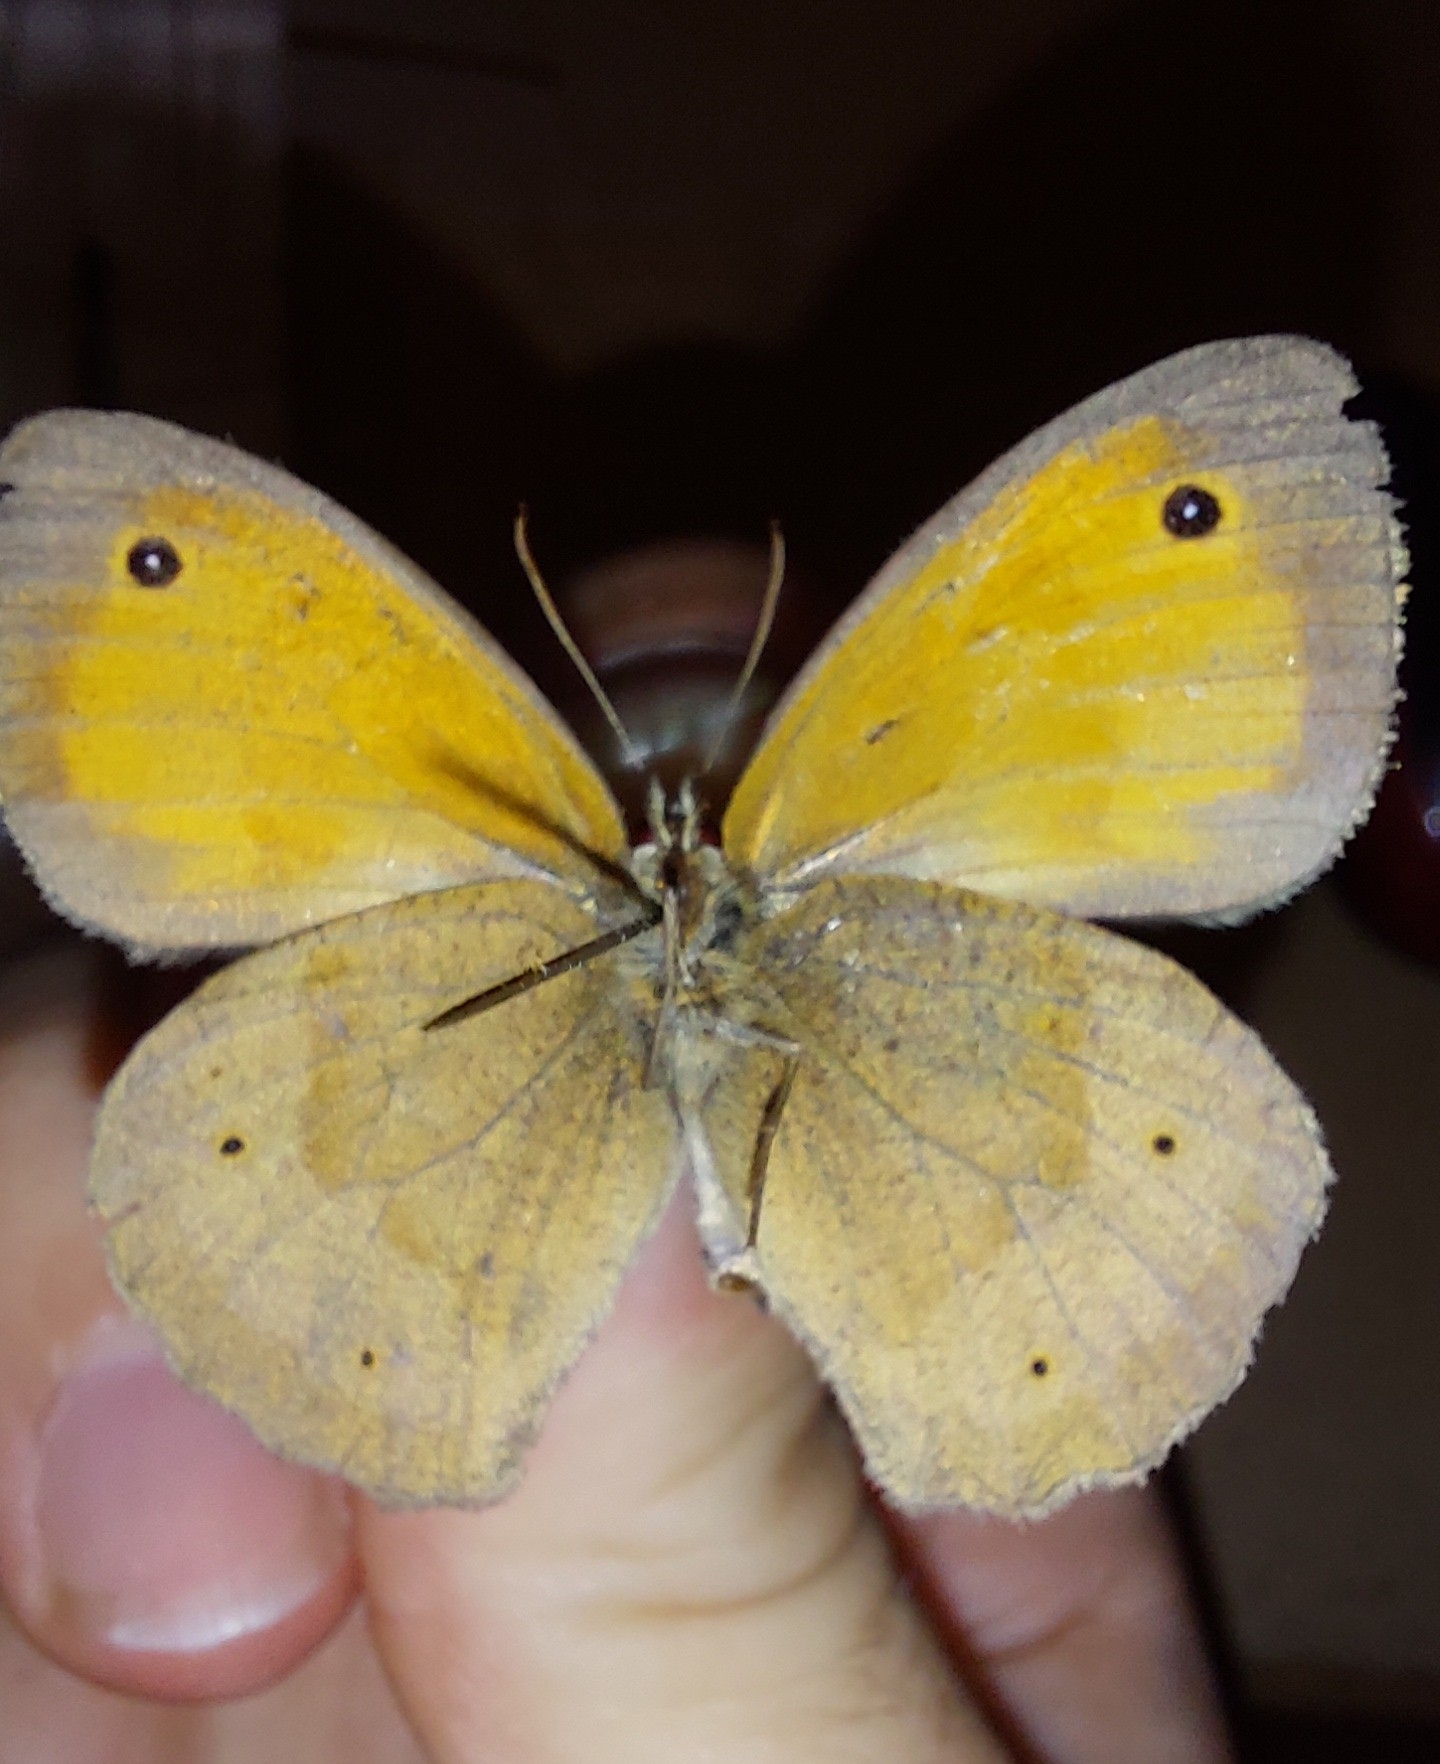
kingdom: Animalia
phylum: Arthropoda
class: Insecta
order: Lepidoptera
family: Nymphalidae
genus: Maniola
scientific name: Maniola jurtina
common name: Meadow brown
